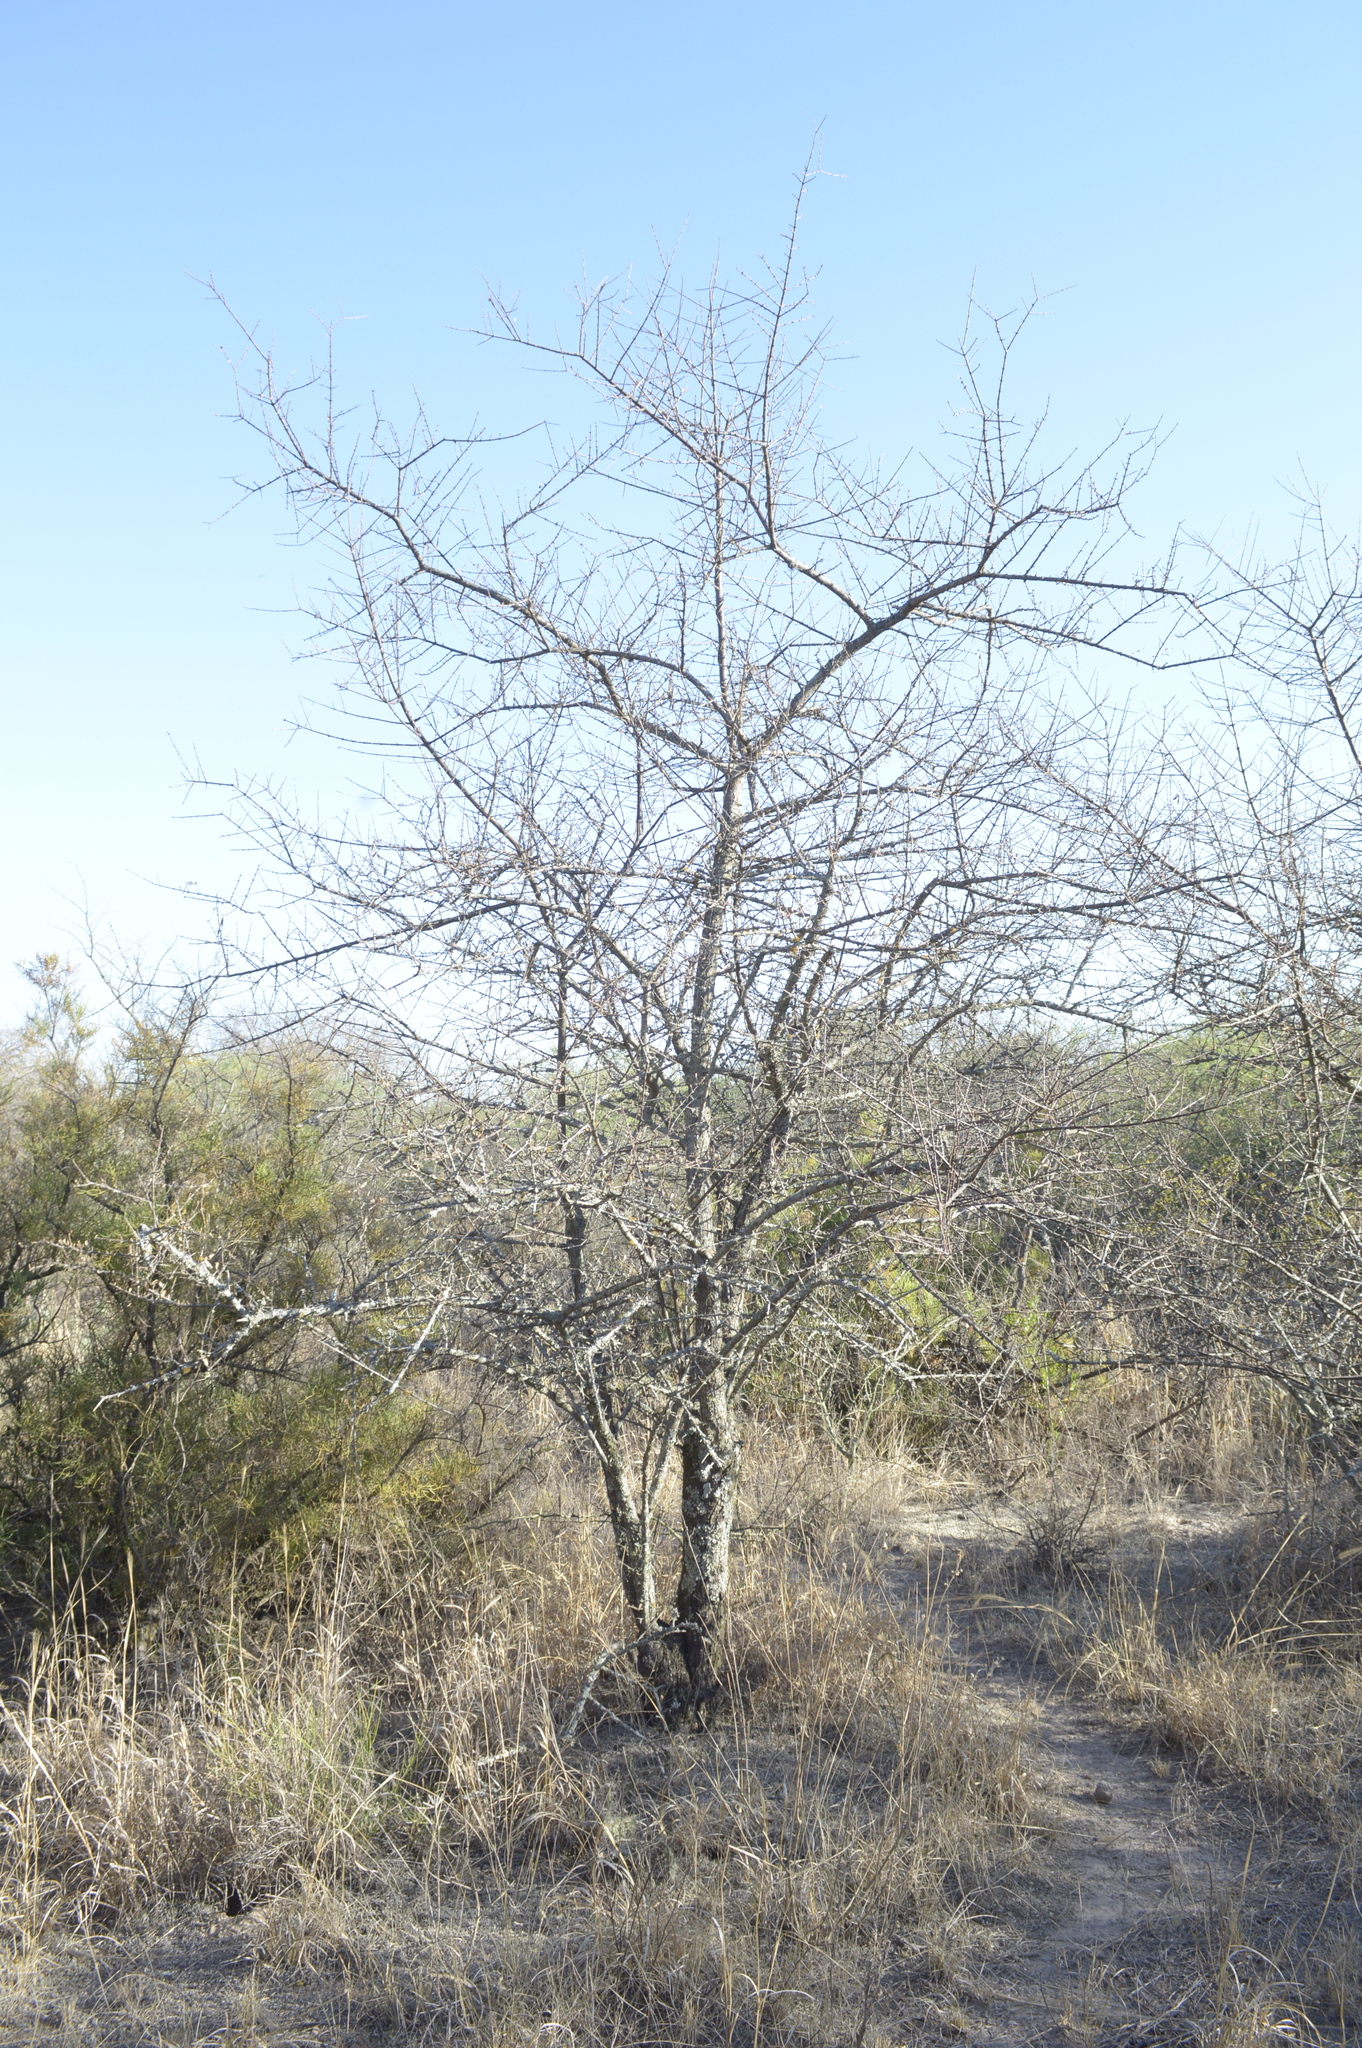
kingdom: Plantae
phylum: Tracheophyta
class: Magnoliopsida
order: Lamiales
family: Bignoniaceae
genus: Tabebuia
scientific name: Tabebuia nodosa
